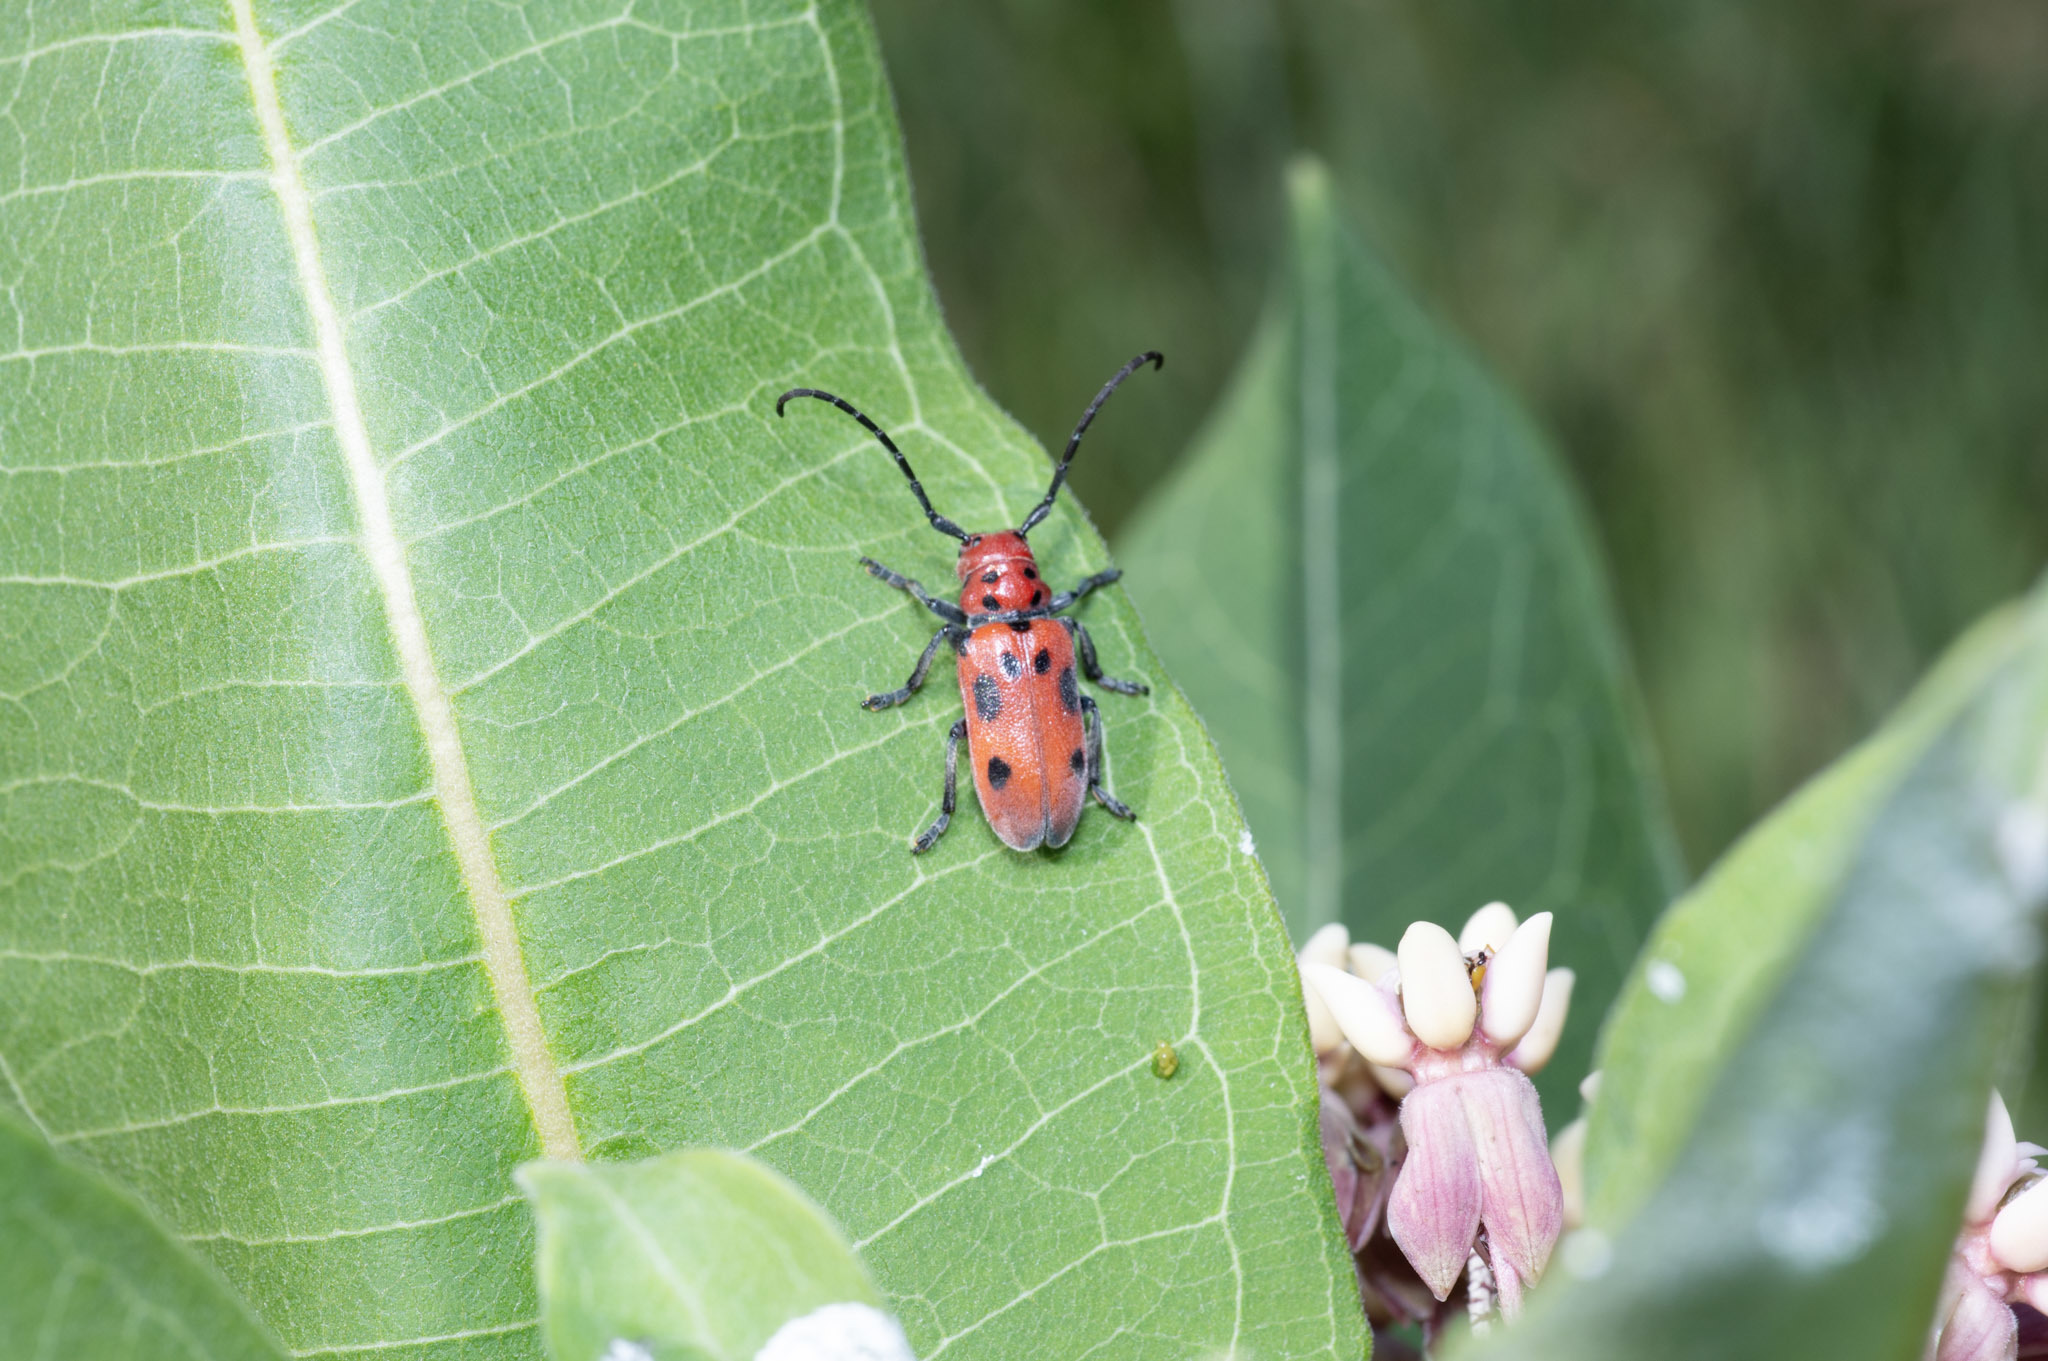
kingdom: Animalia
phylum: Arthropoda
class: Insecta
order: Coleoptera
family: Cerambycidae
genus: Tetraopes
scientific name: Tetraopes tetrophthalmus
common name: Red milkweed beetle
